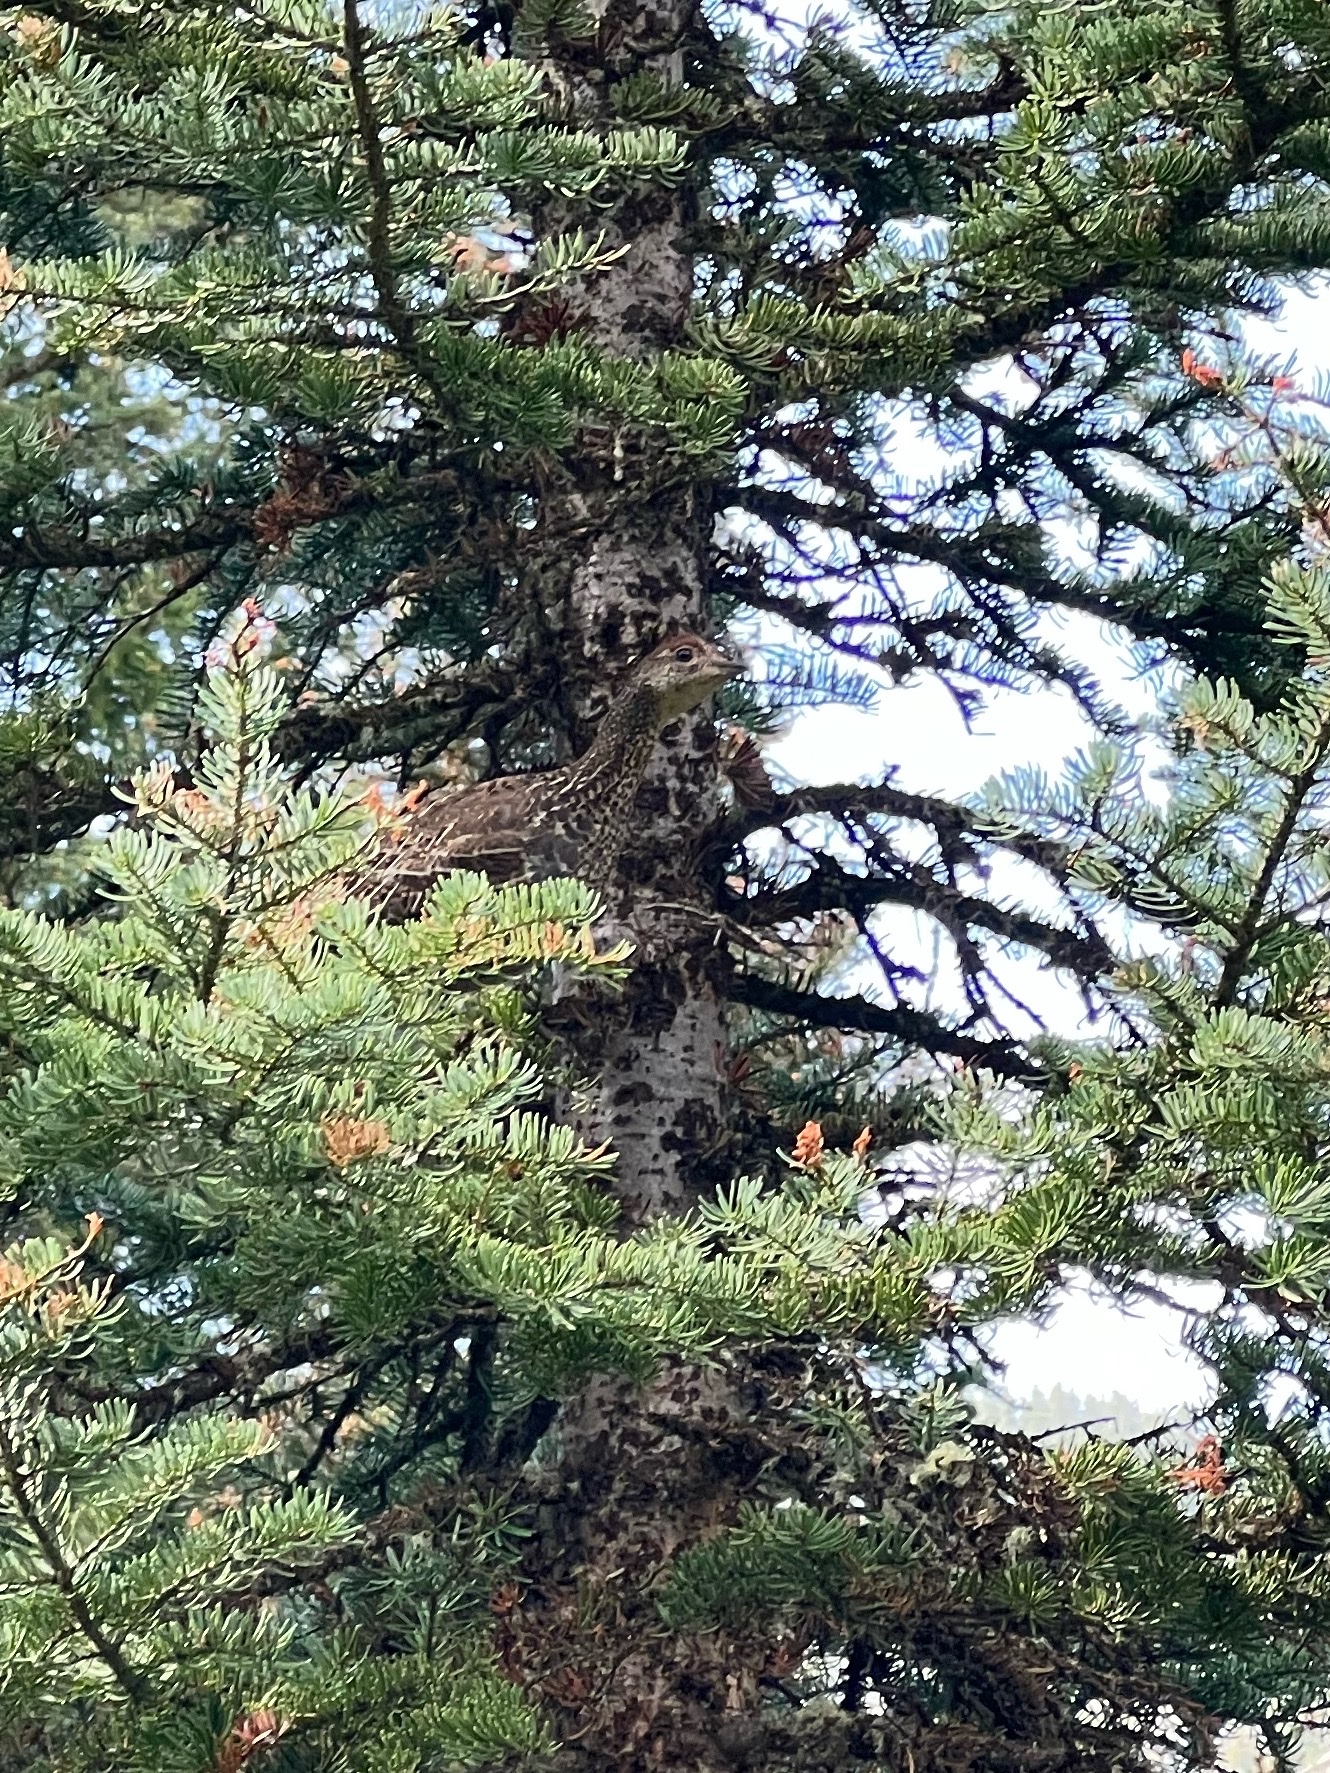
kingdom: Animalia
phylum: Chordata
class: Aves
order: Galliformes
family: Phasianidae
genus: Dendragapus
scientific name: Dendragapus obscurus
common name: Dusky grouse
